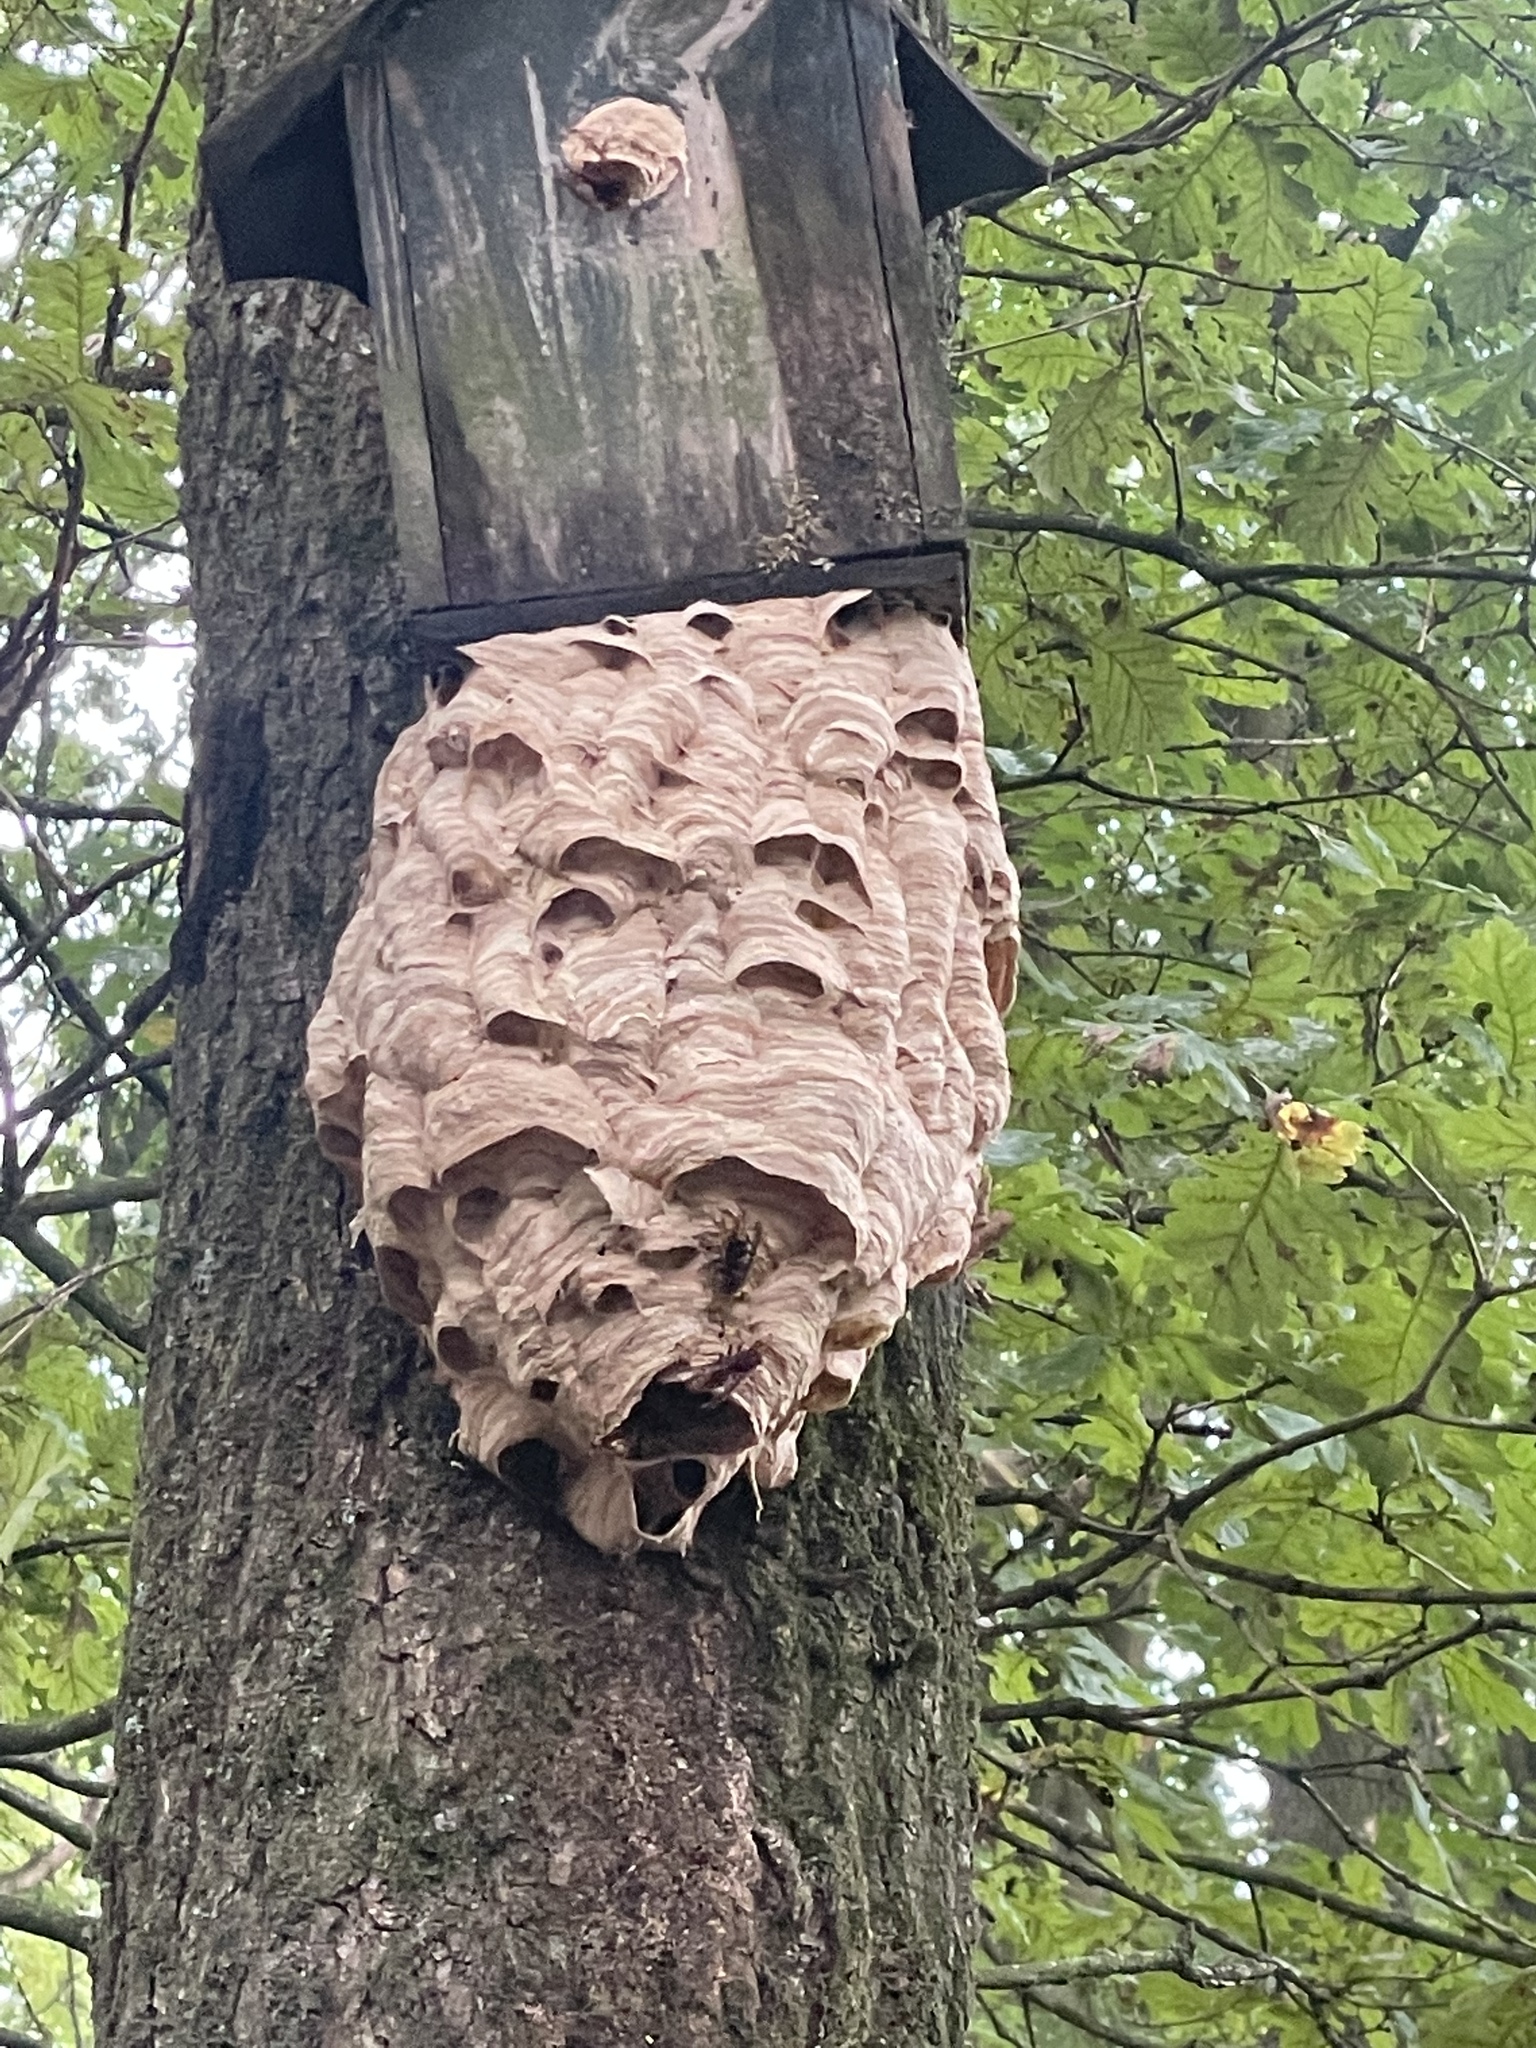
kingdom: Animalia
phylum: Arthropoda
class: Insecta
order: Hymenoptera
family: Vespidae
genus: Vespa
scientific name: Vespa crabro
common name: Hornet
